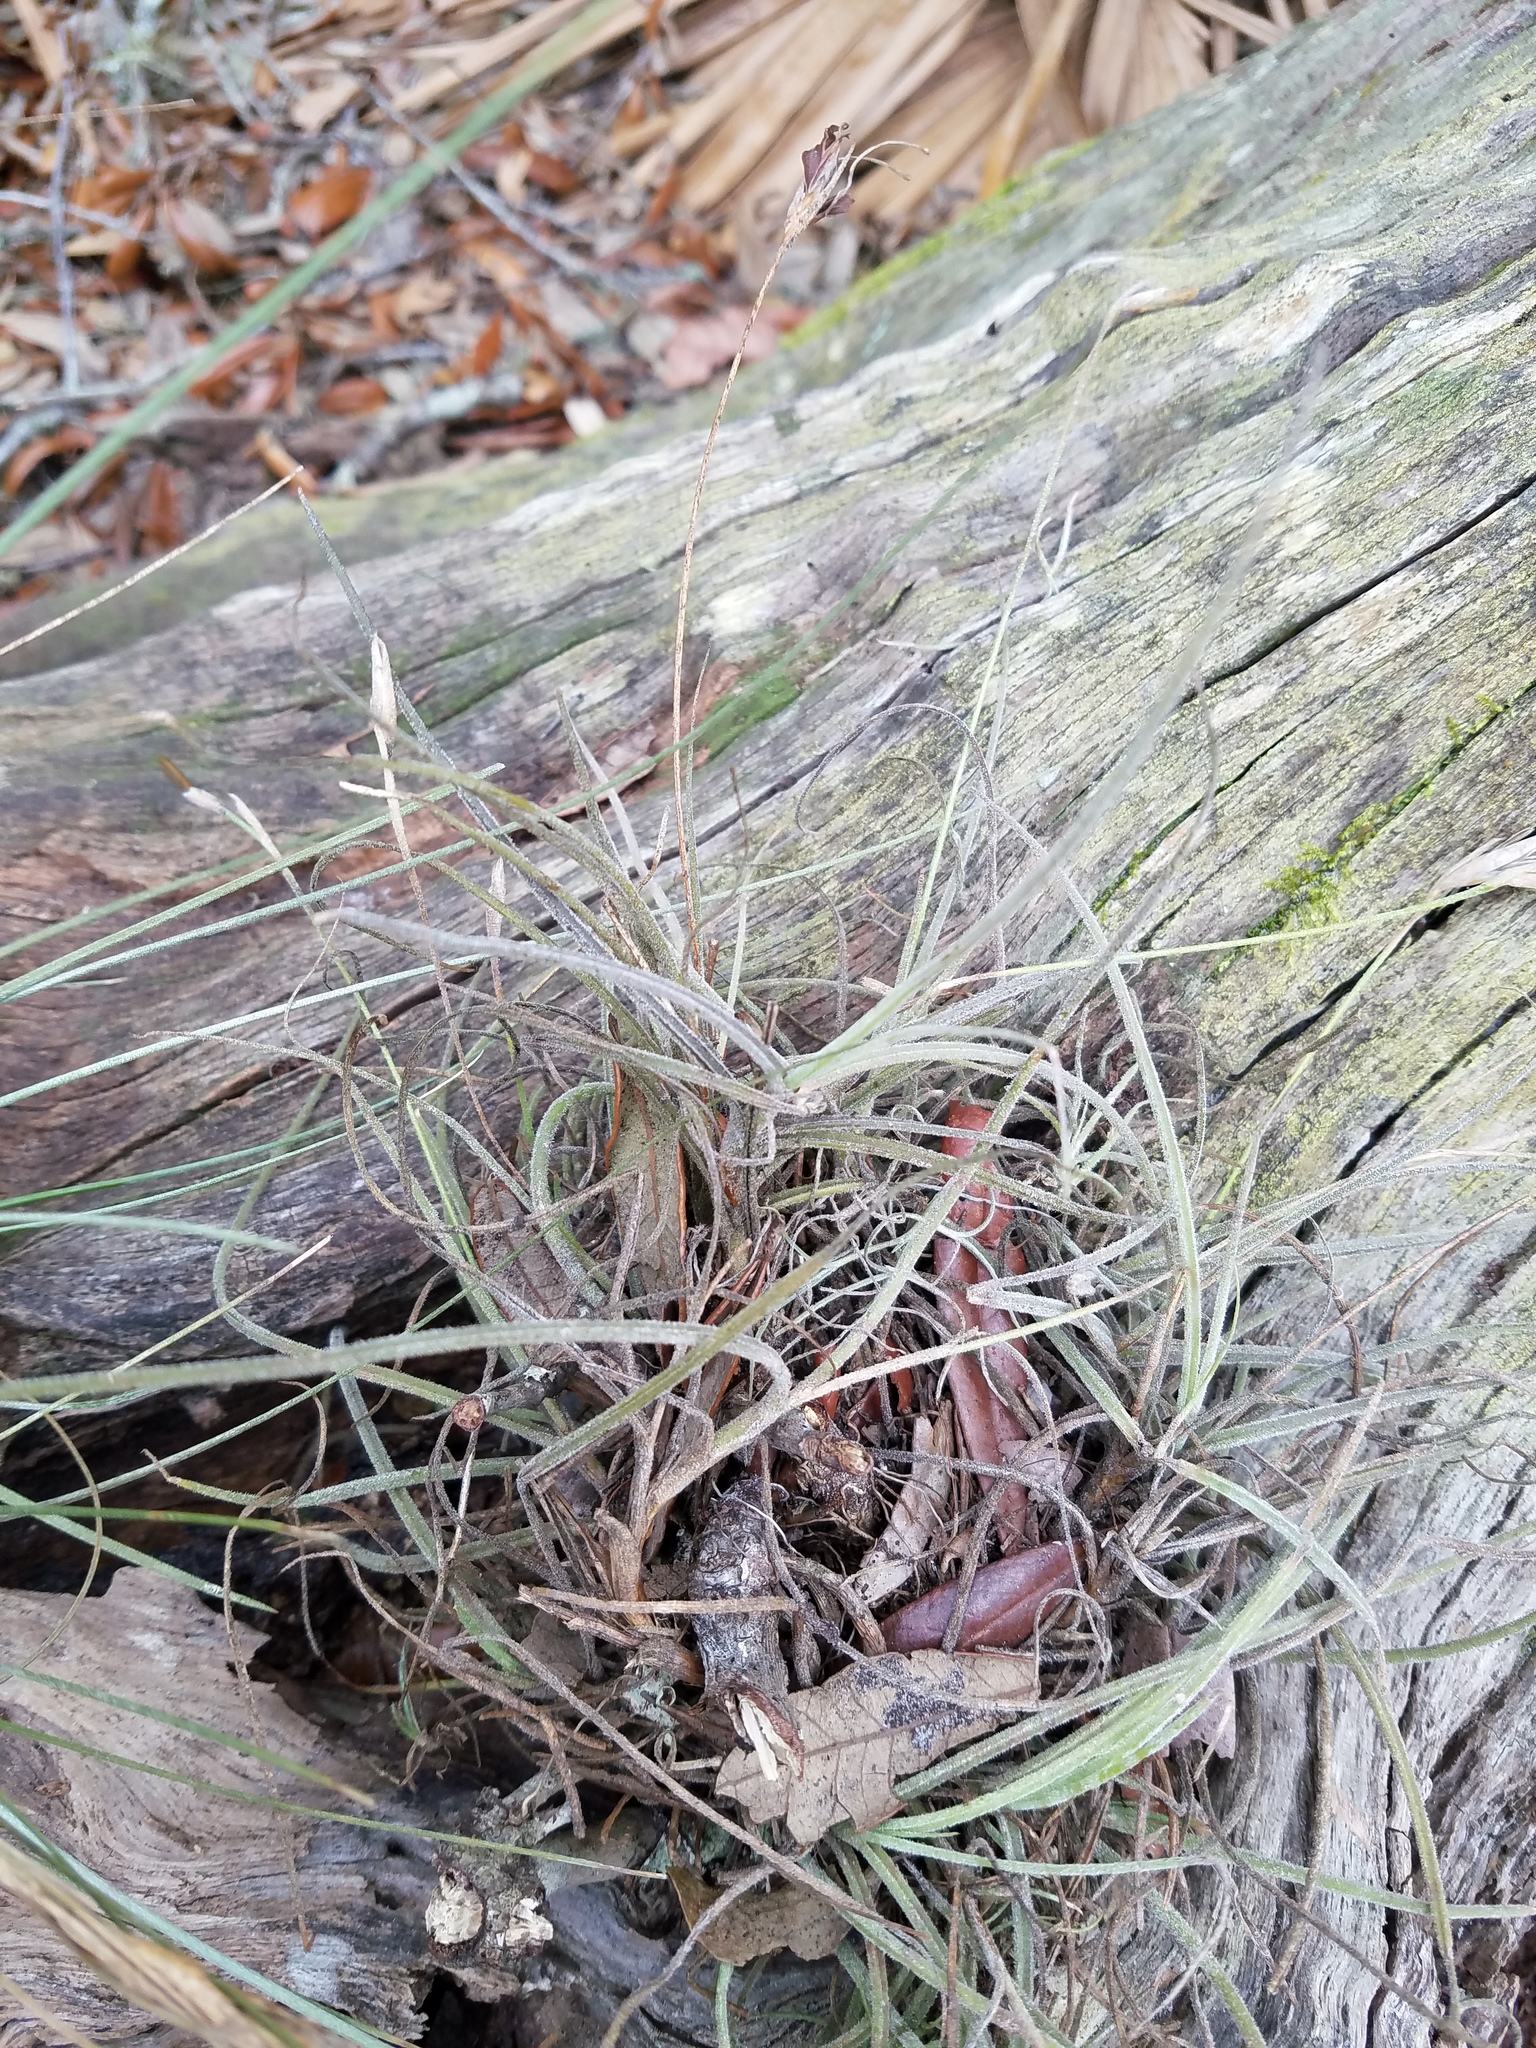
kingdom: Plantae
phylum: Tracheophyta
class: Liliopsida
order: Poales
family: Bromeliaceae
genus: Tillandsia
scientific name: Tillandsia recurvata
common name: Small ballmoss
